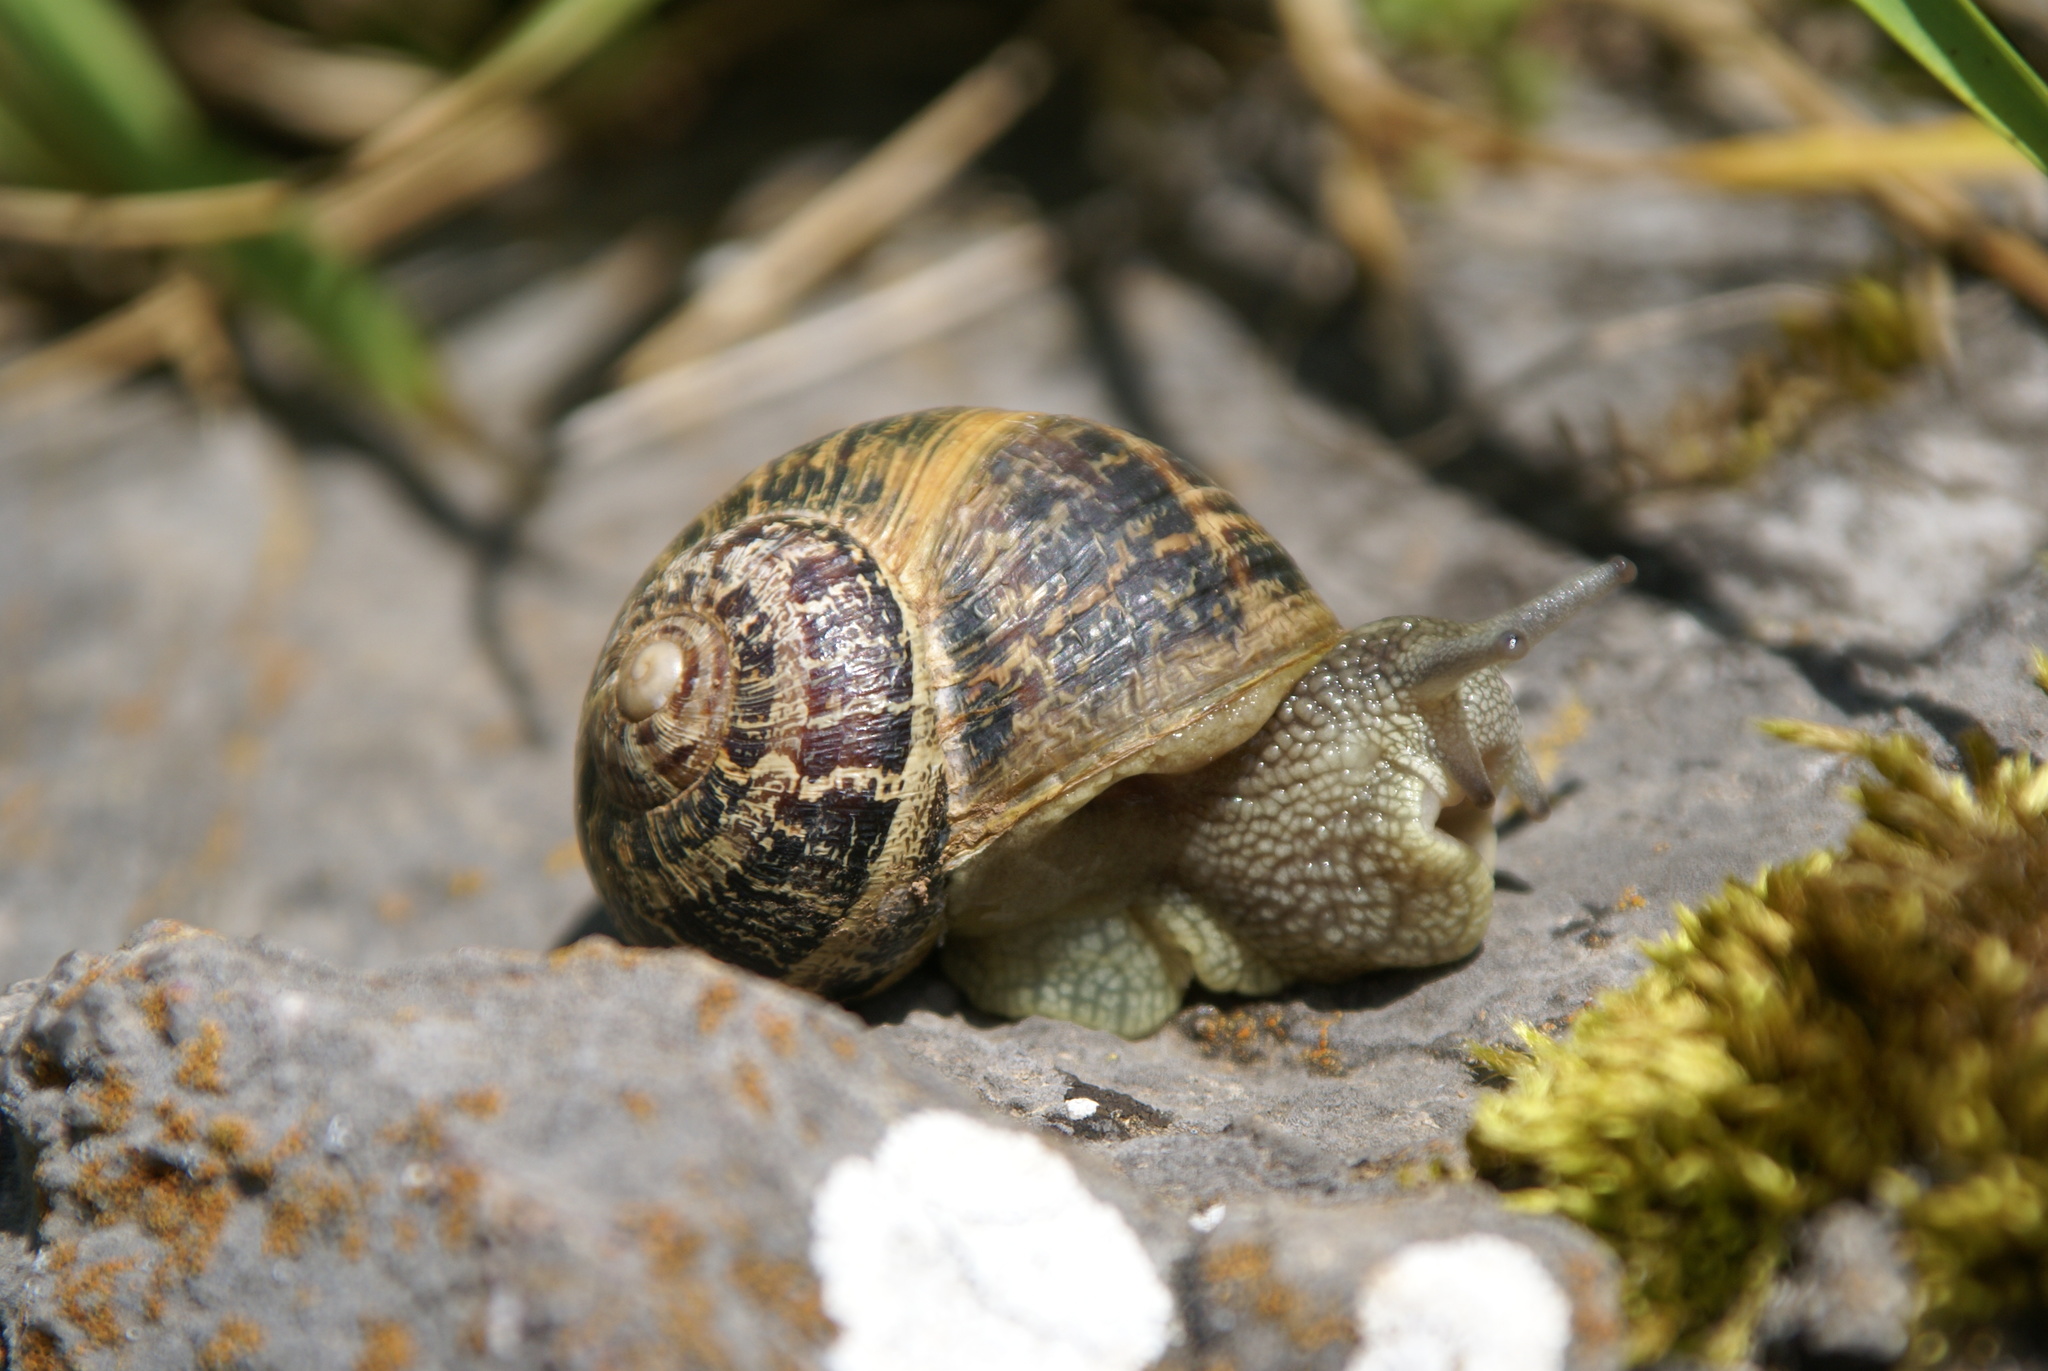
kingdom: Animalia
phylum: Mollusca
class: Gastropoda
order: Stylommatophora
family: Helicidae
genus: Cornu
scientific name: Cornu aspersum
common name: Brown garden snail
